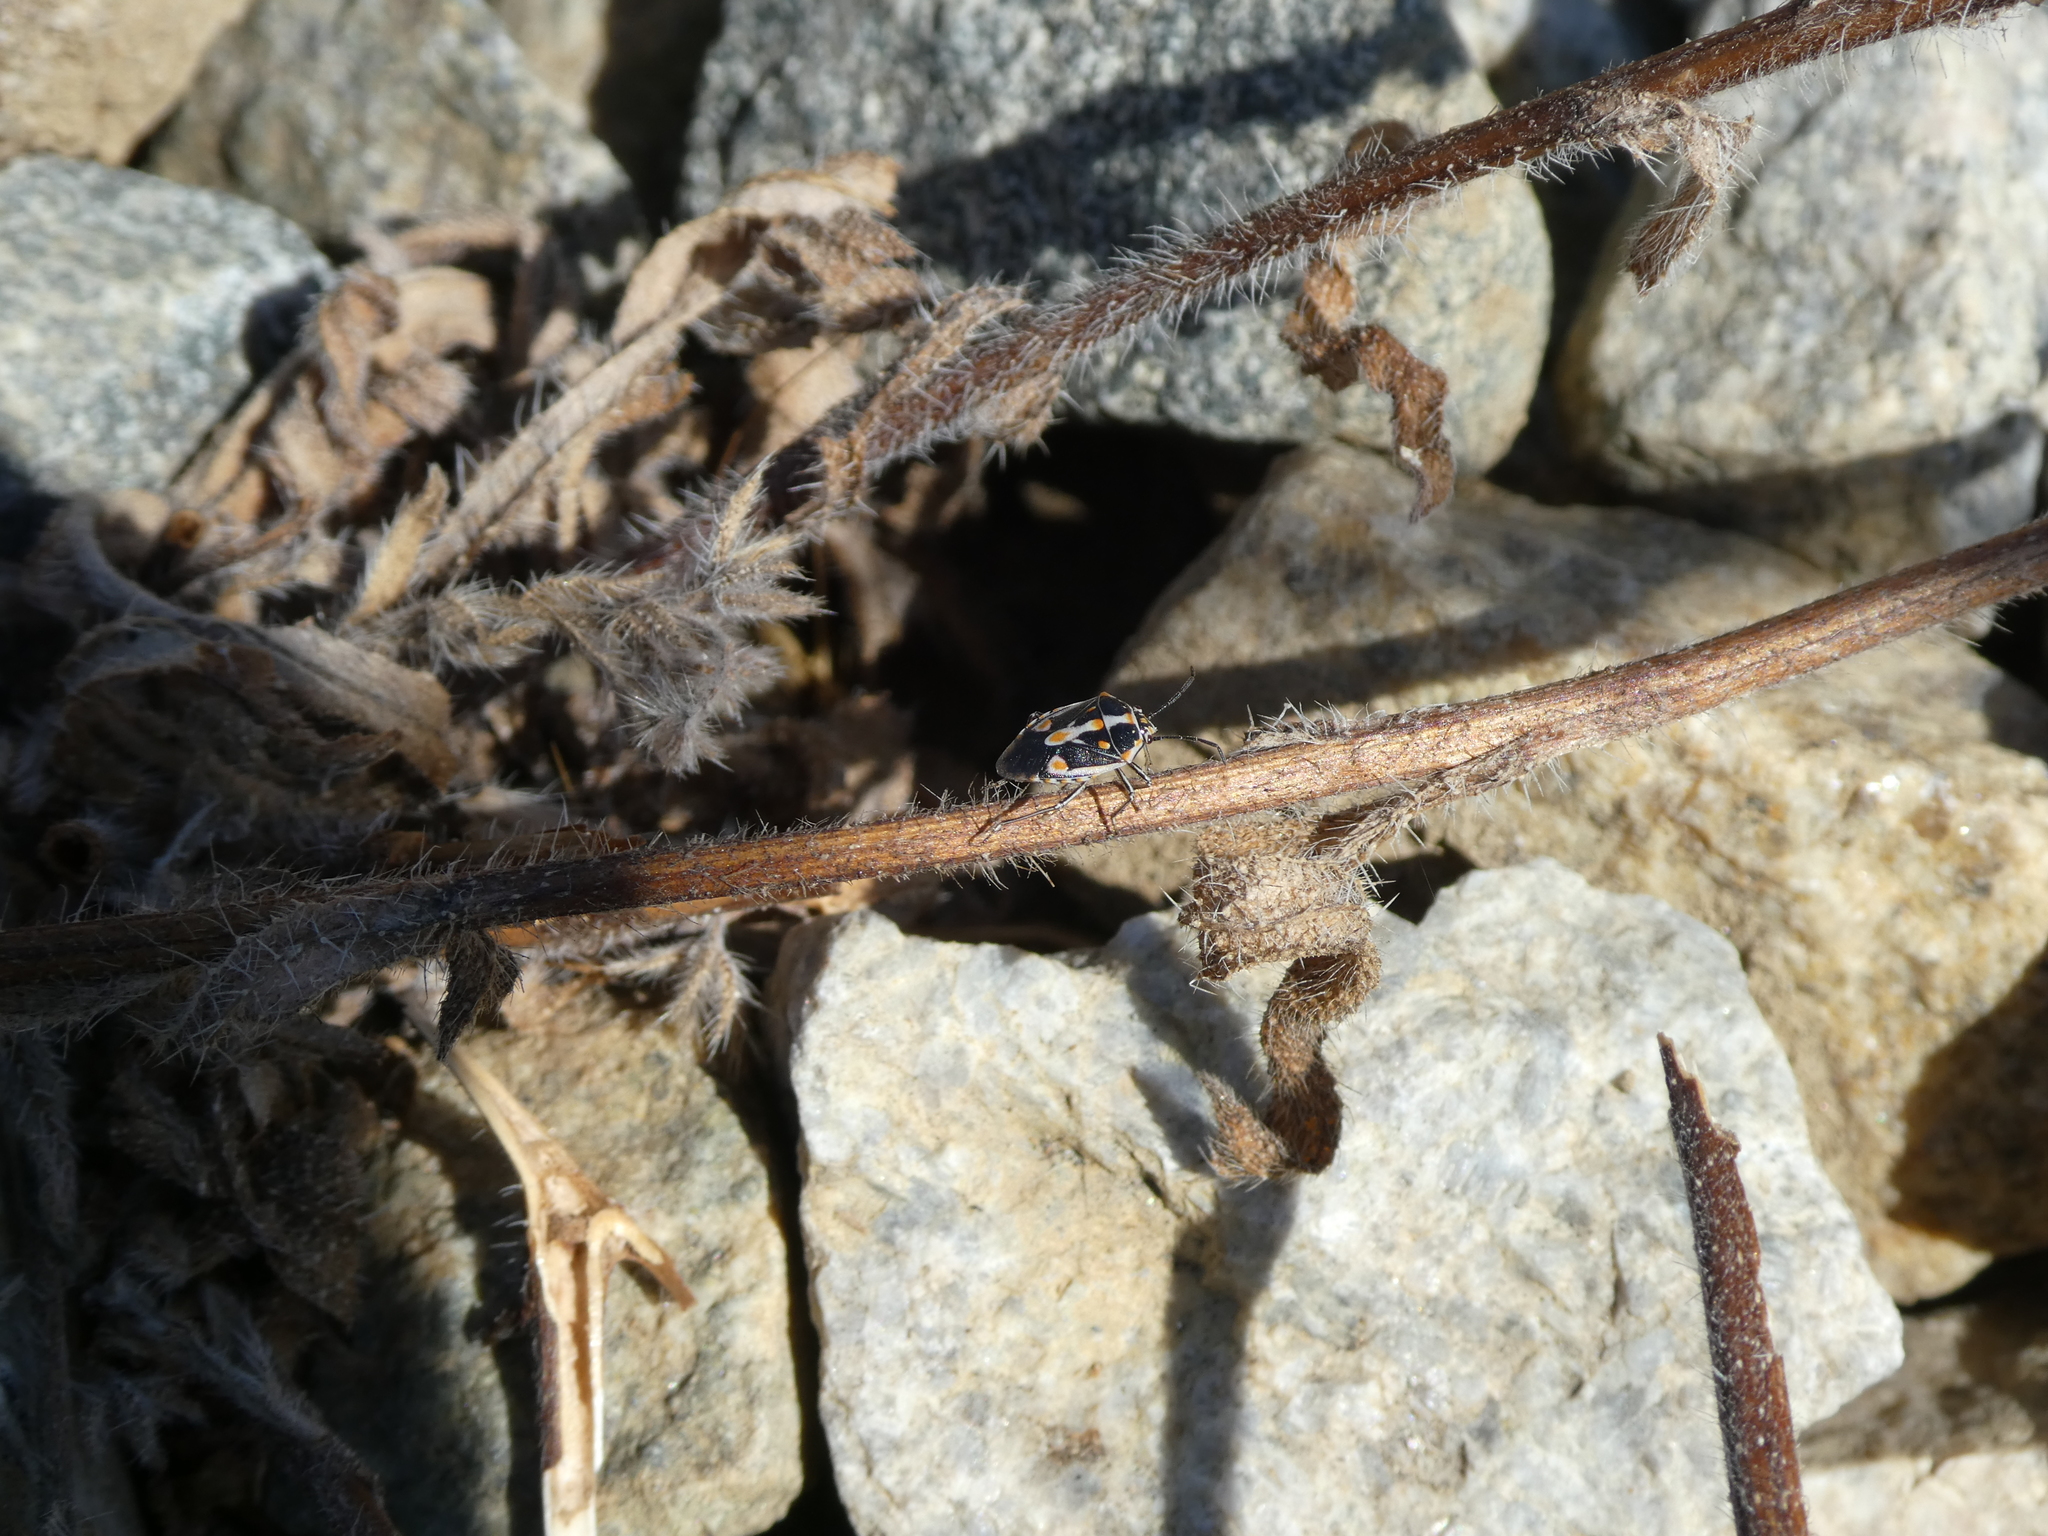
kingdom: Animalia
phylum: Arthropoda
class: Insecta
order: Hemiptera
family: Pentatomidae
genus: Bagrada
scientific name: Bagrada hilaris
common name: Bagrada bug
